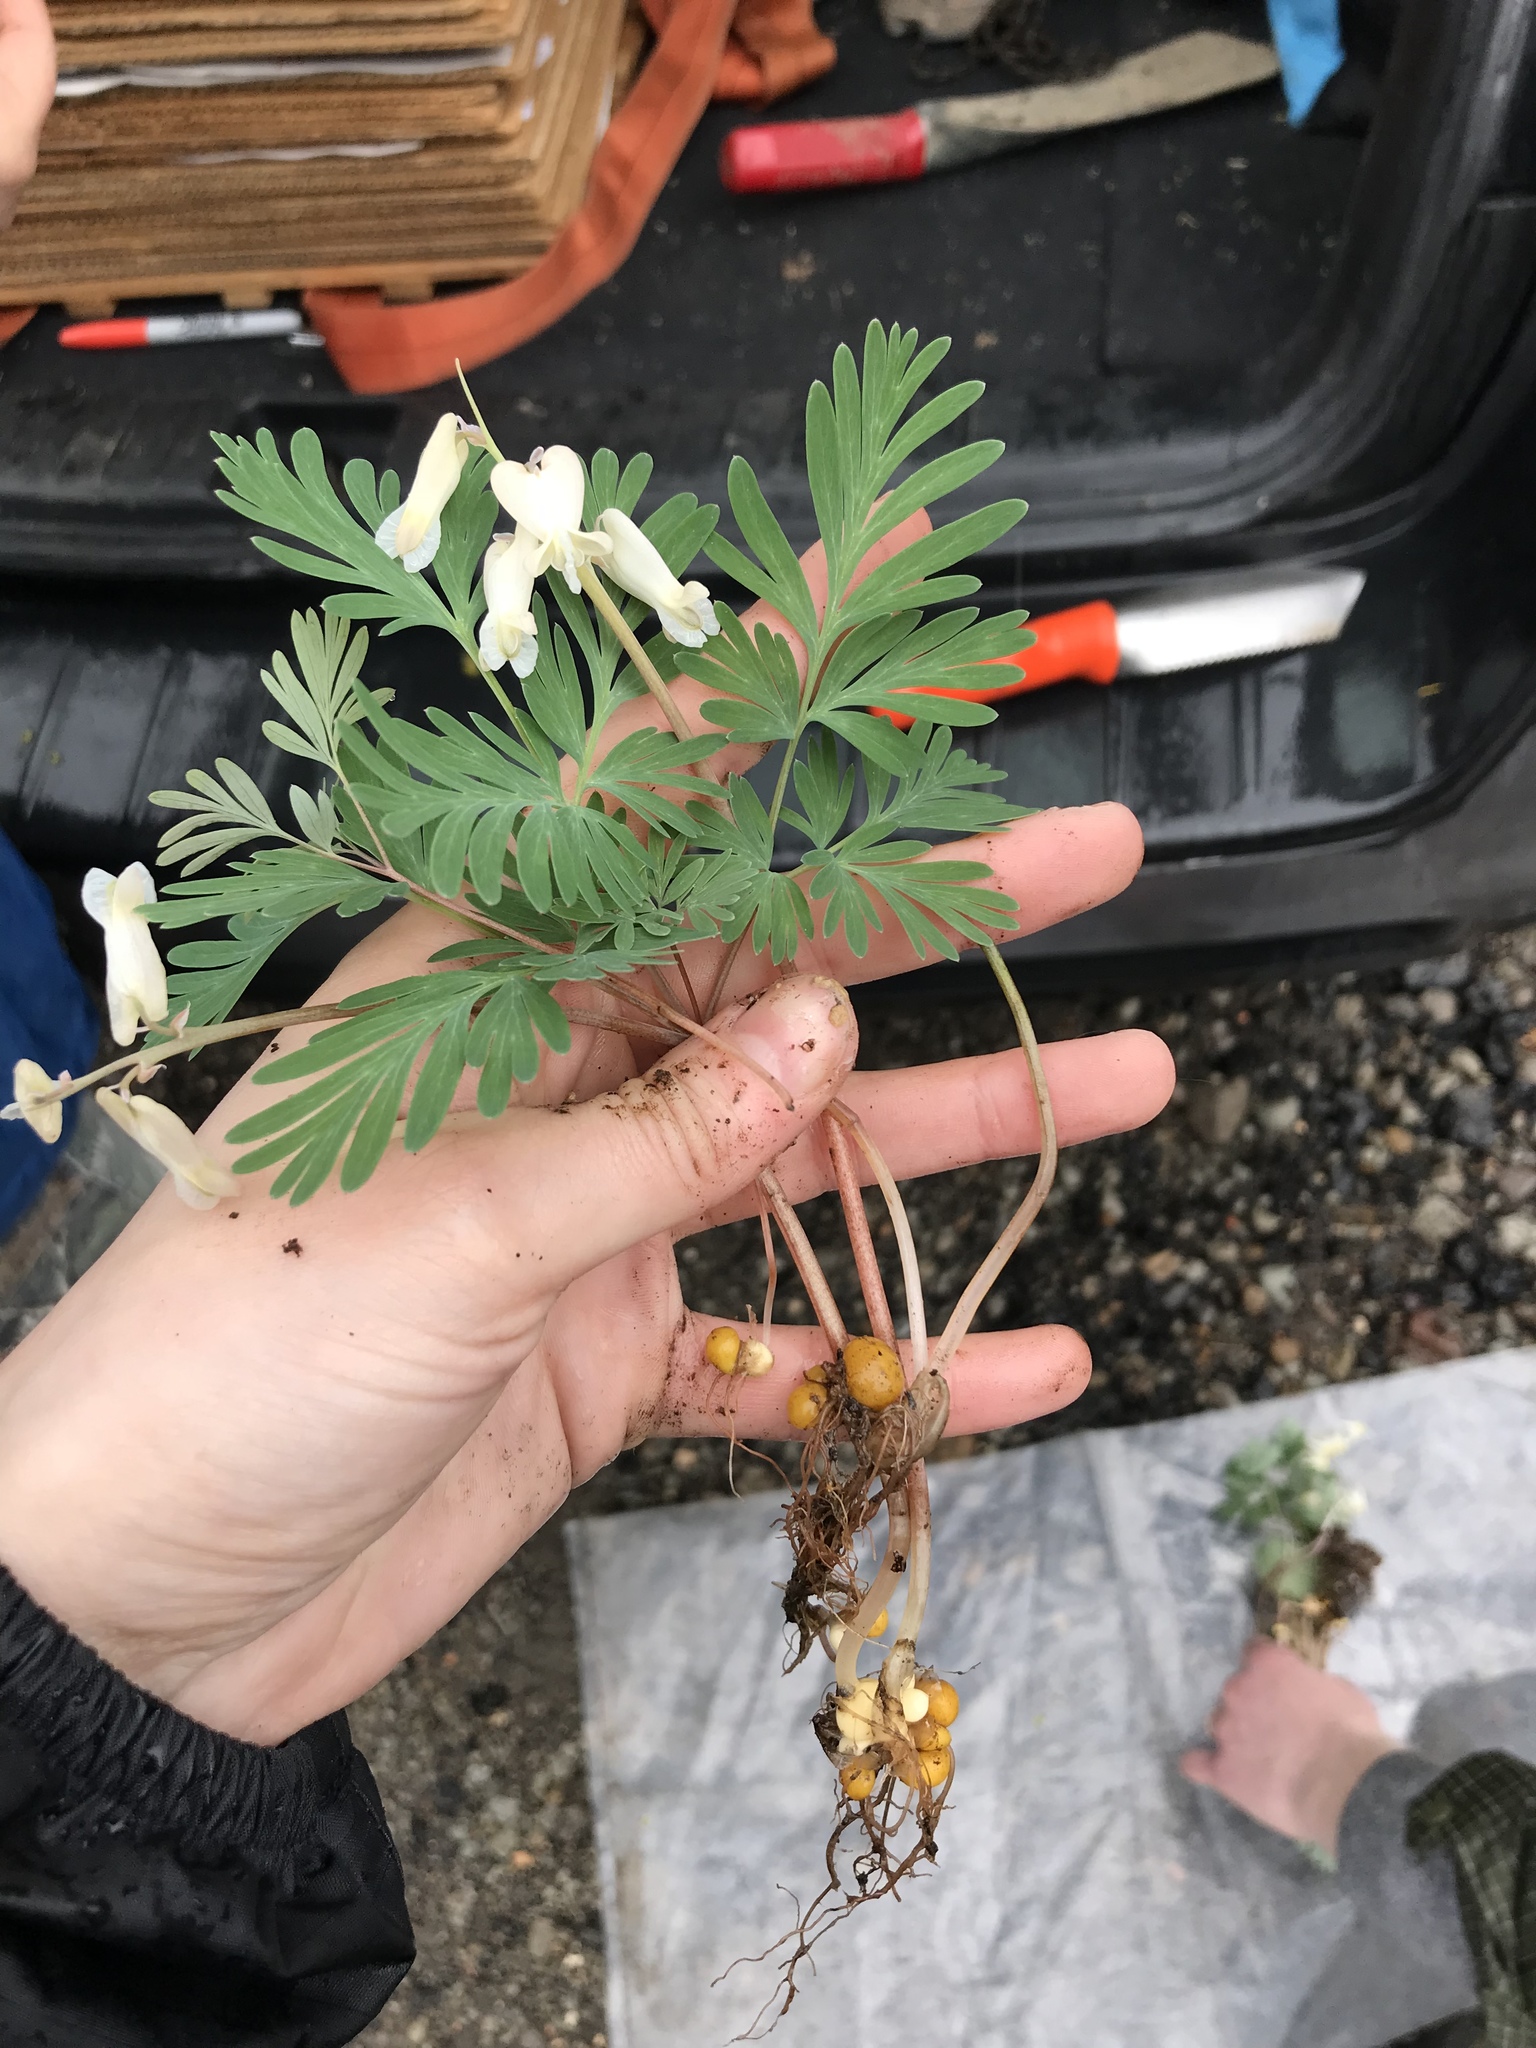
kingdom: Plantae
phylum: Tracheophyta
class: Magnoliopsida
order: Ranunculales
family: Papaveraceae
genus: Dicentra
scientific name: Dicentra canadensis
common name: Squirrel-corn
